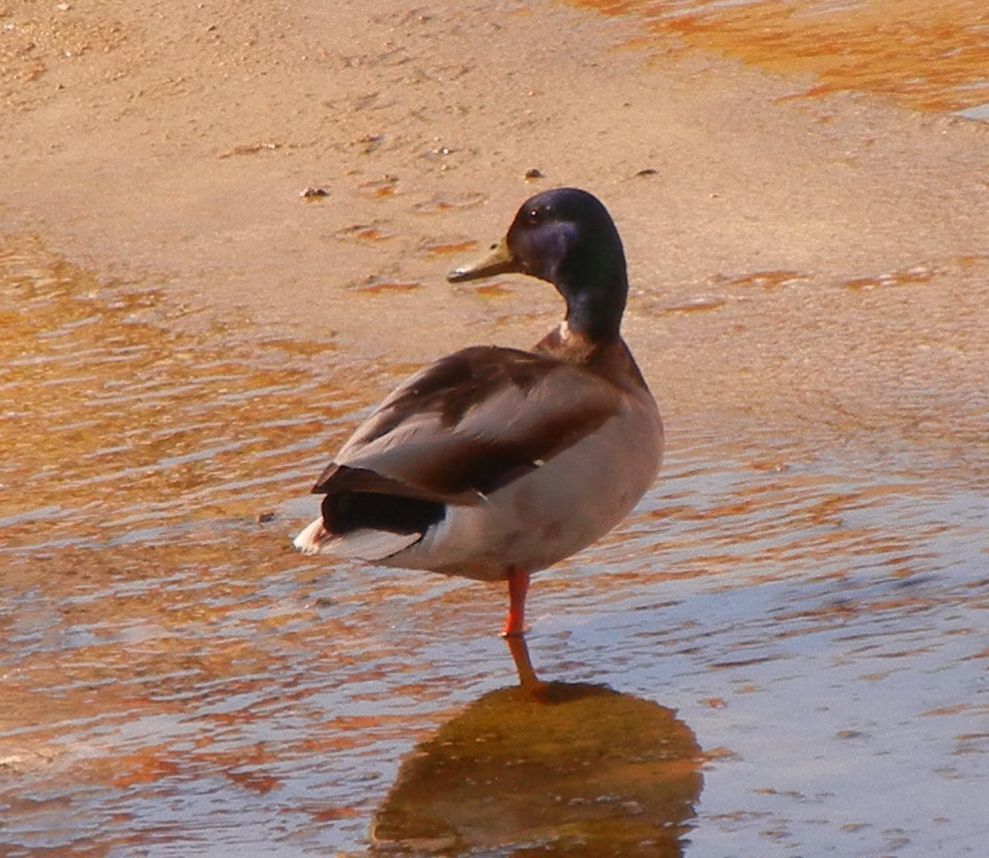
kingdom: Animalia
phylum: Chordata
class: Aves
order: Anseriformes
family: Anatidae
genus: Anas
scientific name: Anas platyrhynchos
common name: Mallard
